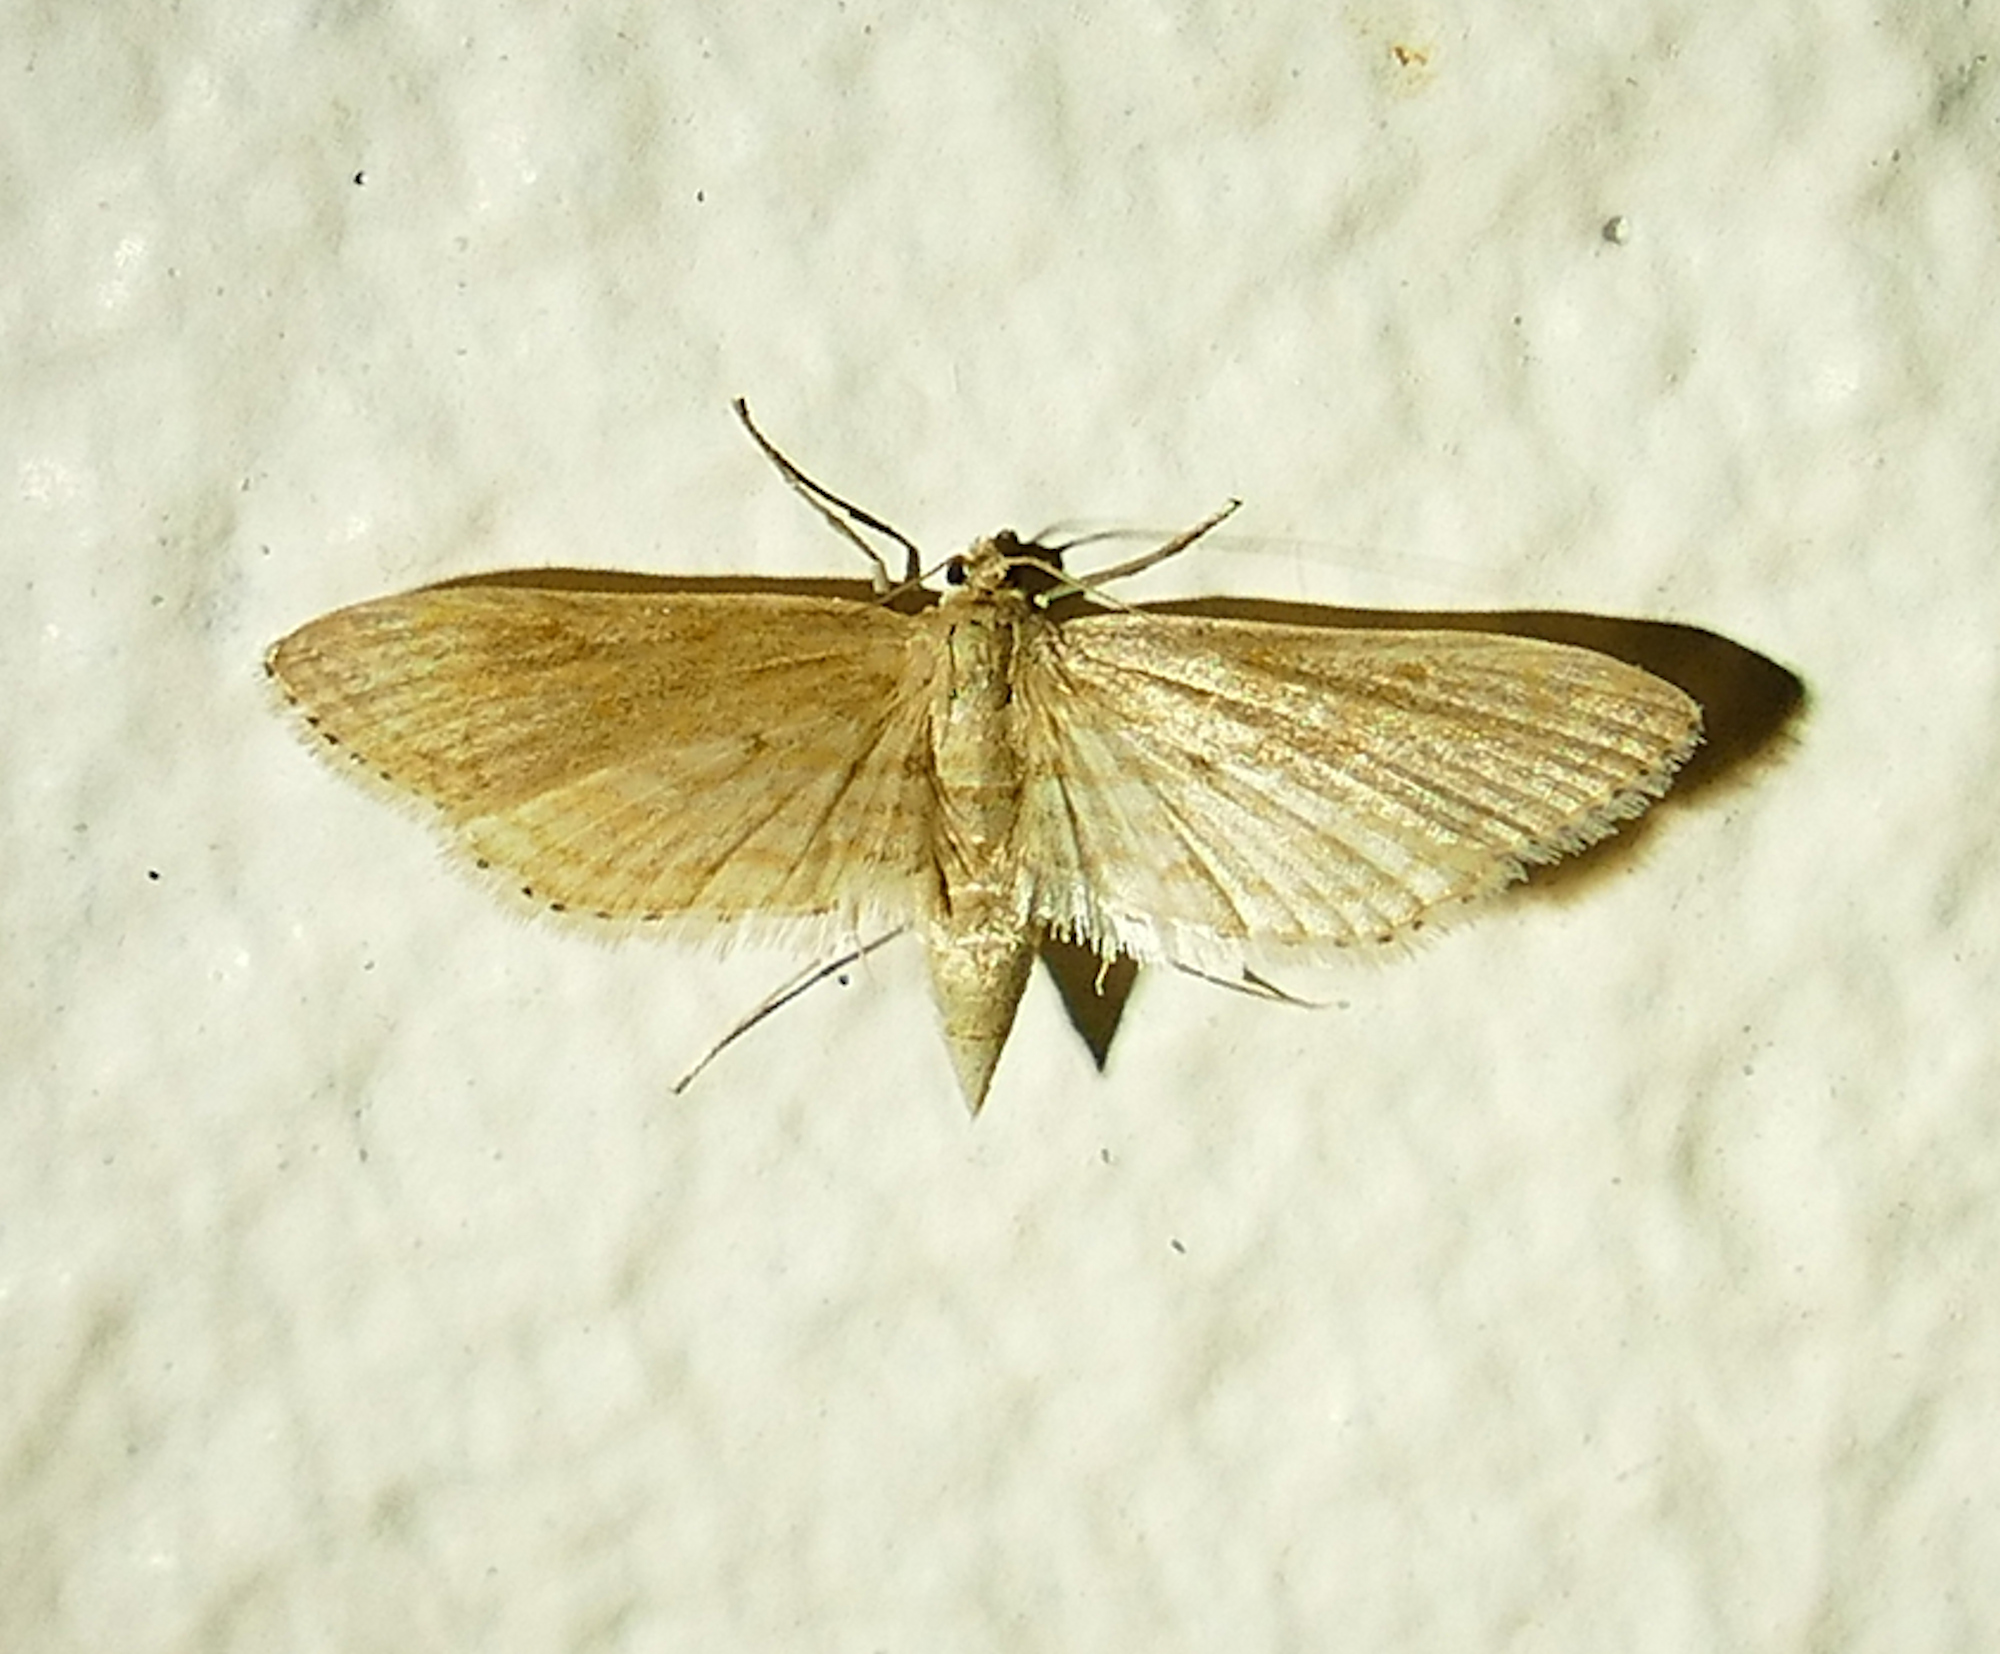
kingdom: Animalia
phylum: Arthropoda
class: Insecta
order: Lepidoptera
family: Crambidae
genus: Parapoynx
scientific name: Parapoynx allionealis
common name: Bladderwort casemaker
